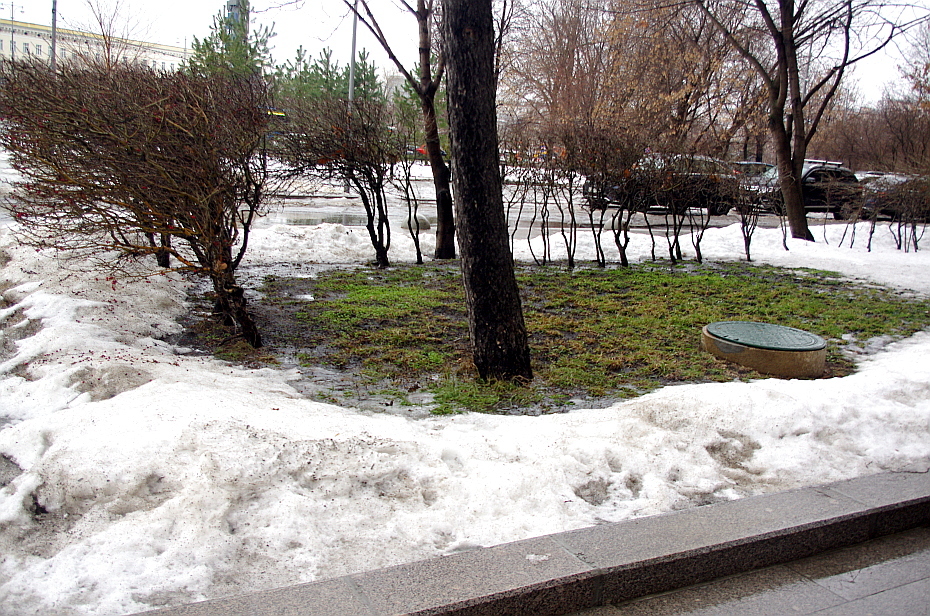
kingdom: Plantae
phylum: Tracheophyta
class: Magnoliopsida
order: Caryophyllales
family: Caryophyllaceae
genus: Stellaria
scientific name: Stellaria media
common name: Common chickweed
